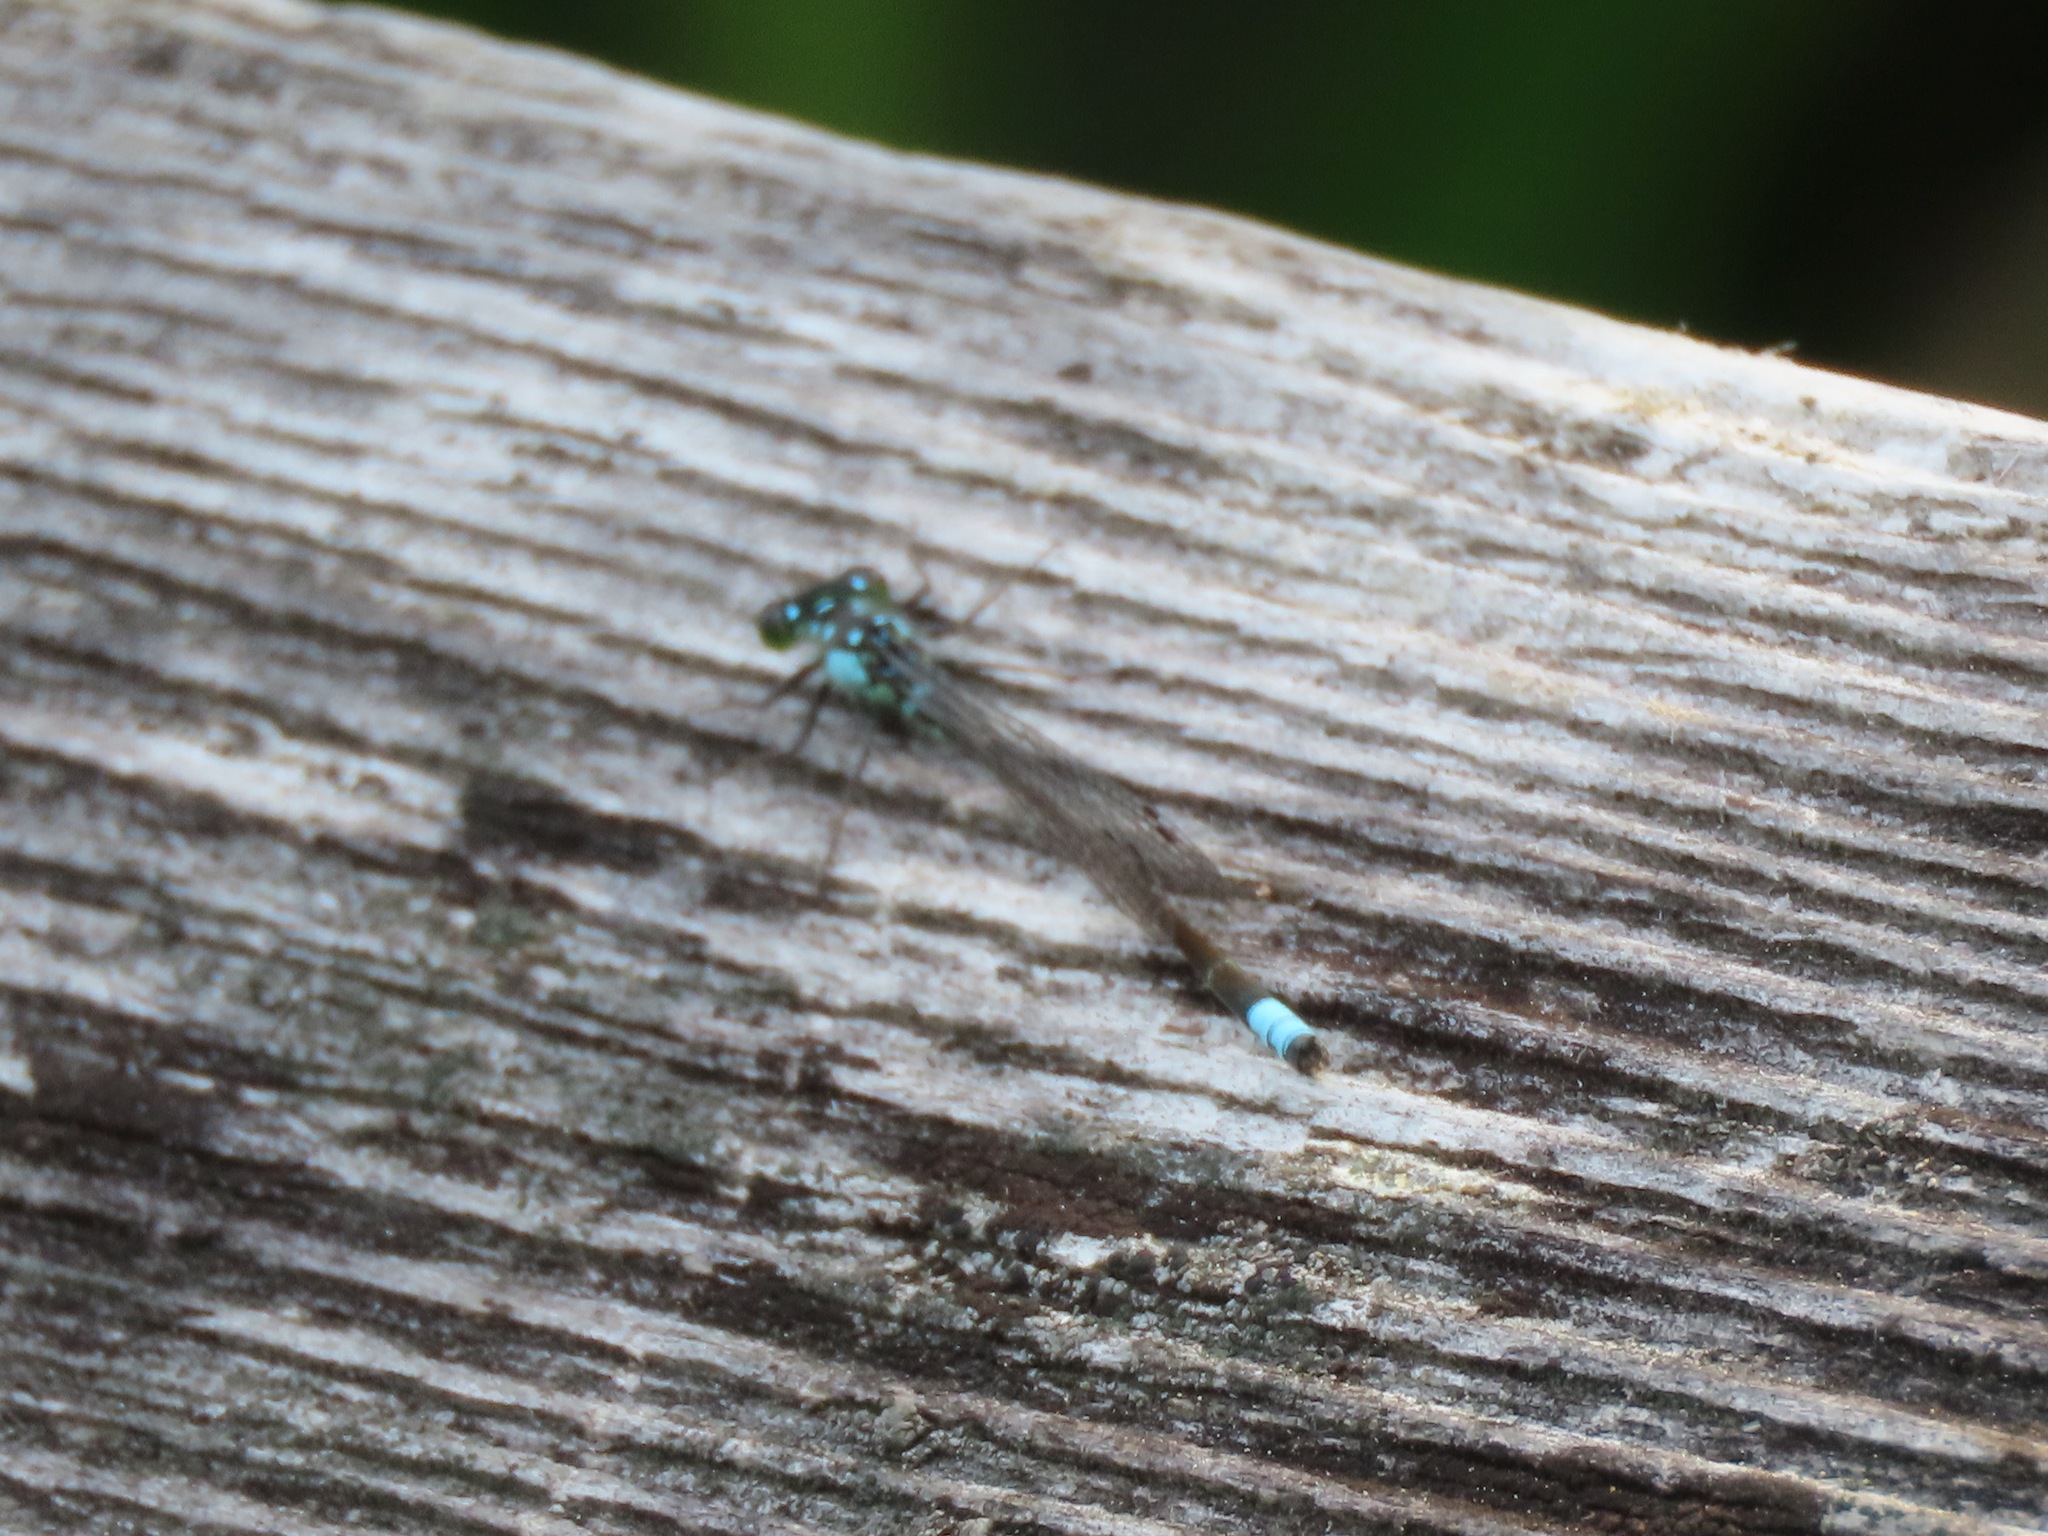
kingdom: Animalia
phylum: Arthropoda
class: Insecta
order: Odonata
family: Coenagrionidae
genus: Ischnura
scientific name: Ischnura cervula
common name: Pacific forktail
